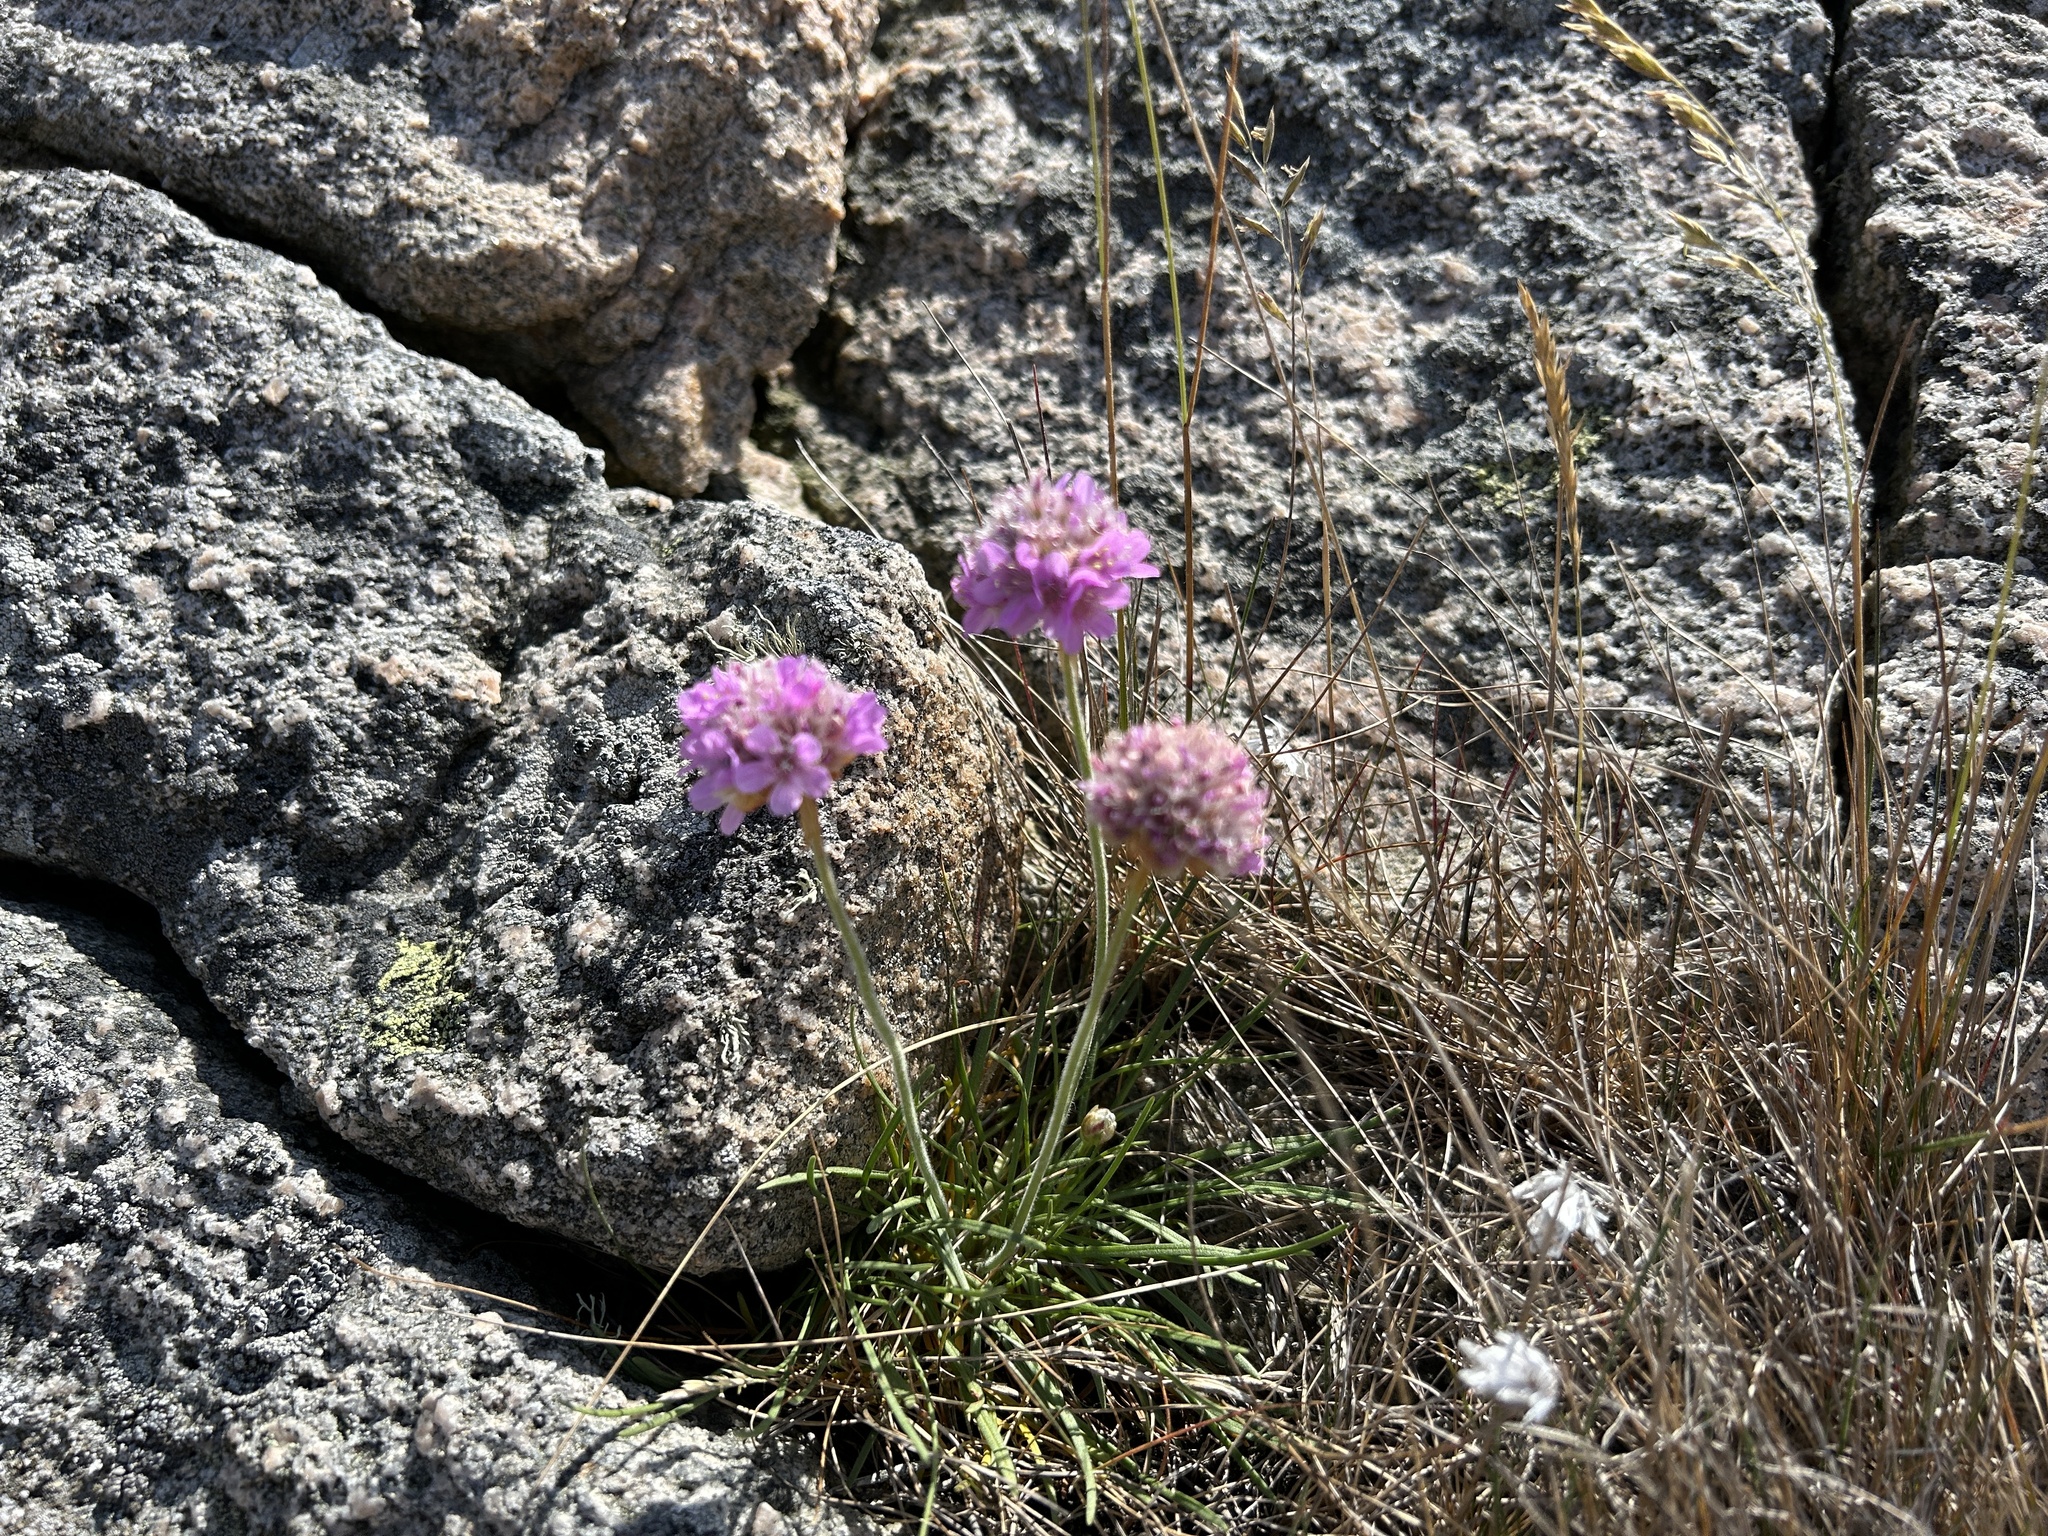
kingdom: Plantae
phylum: Tracheophyta
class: Magnoliopsida
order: Caryophyllales
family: Plumbaginaceae
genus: Armeria
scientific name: Armeria maritima
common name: Thrift
